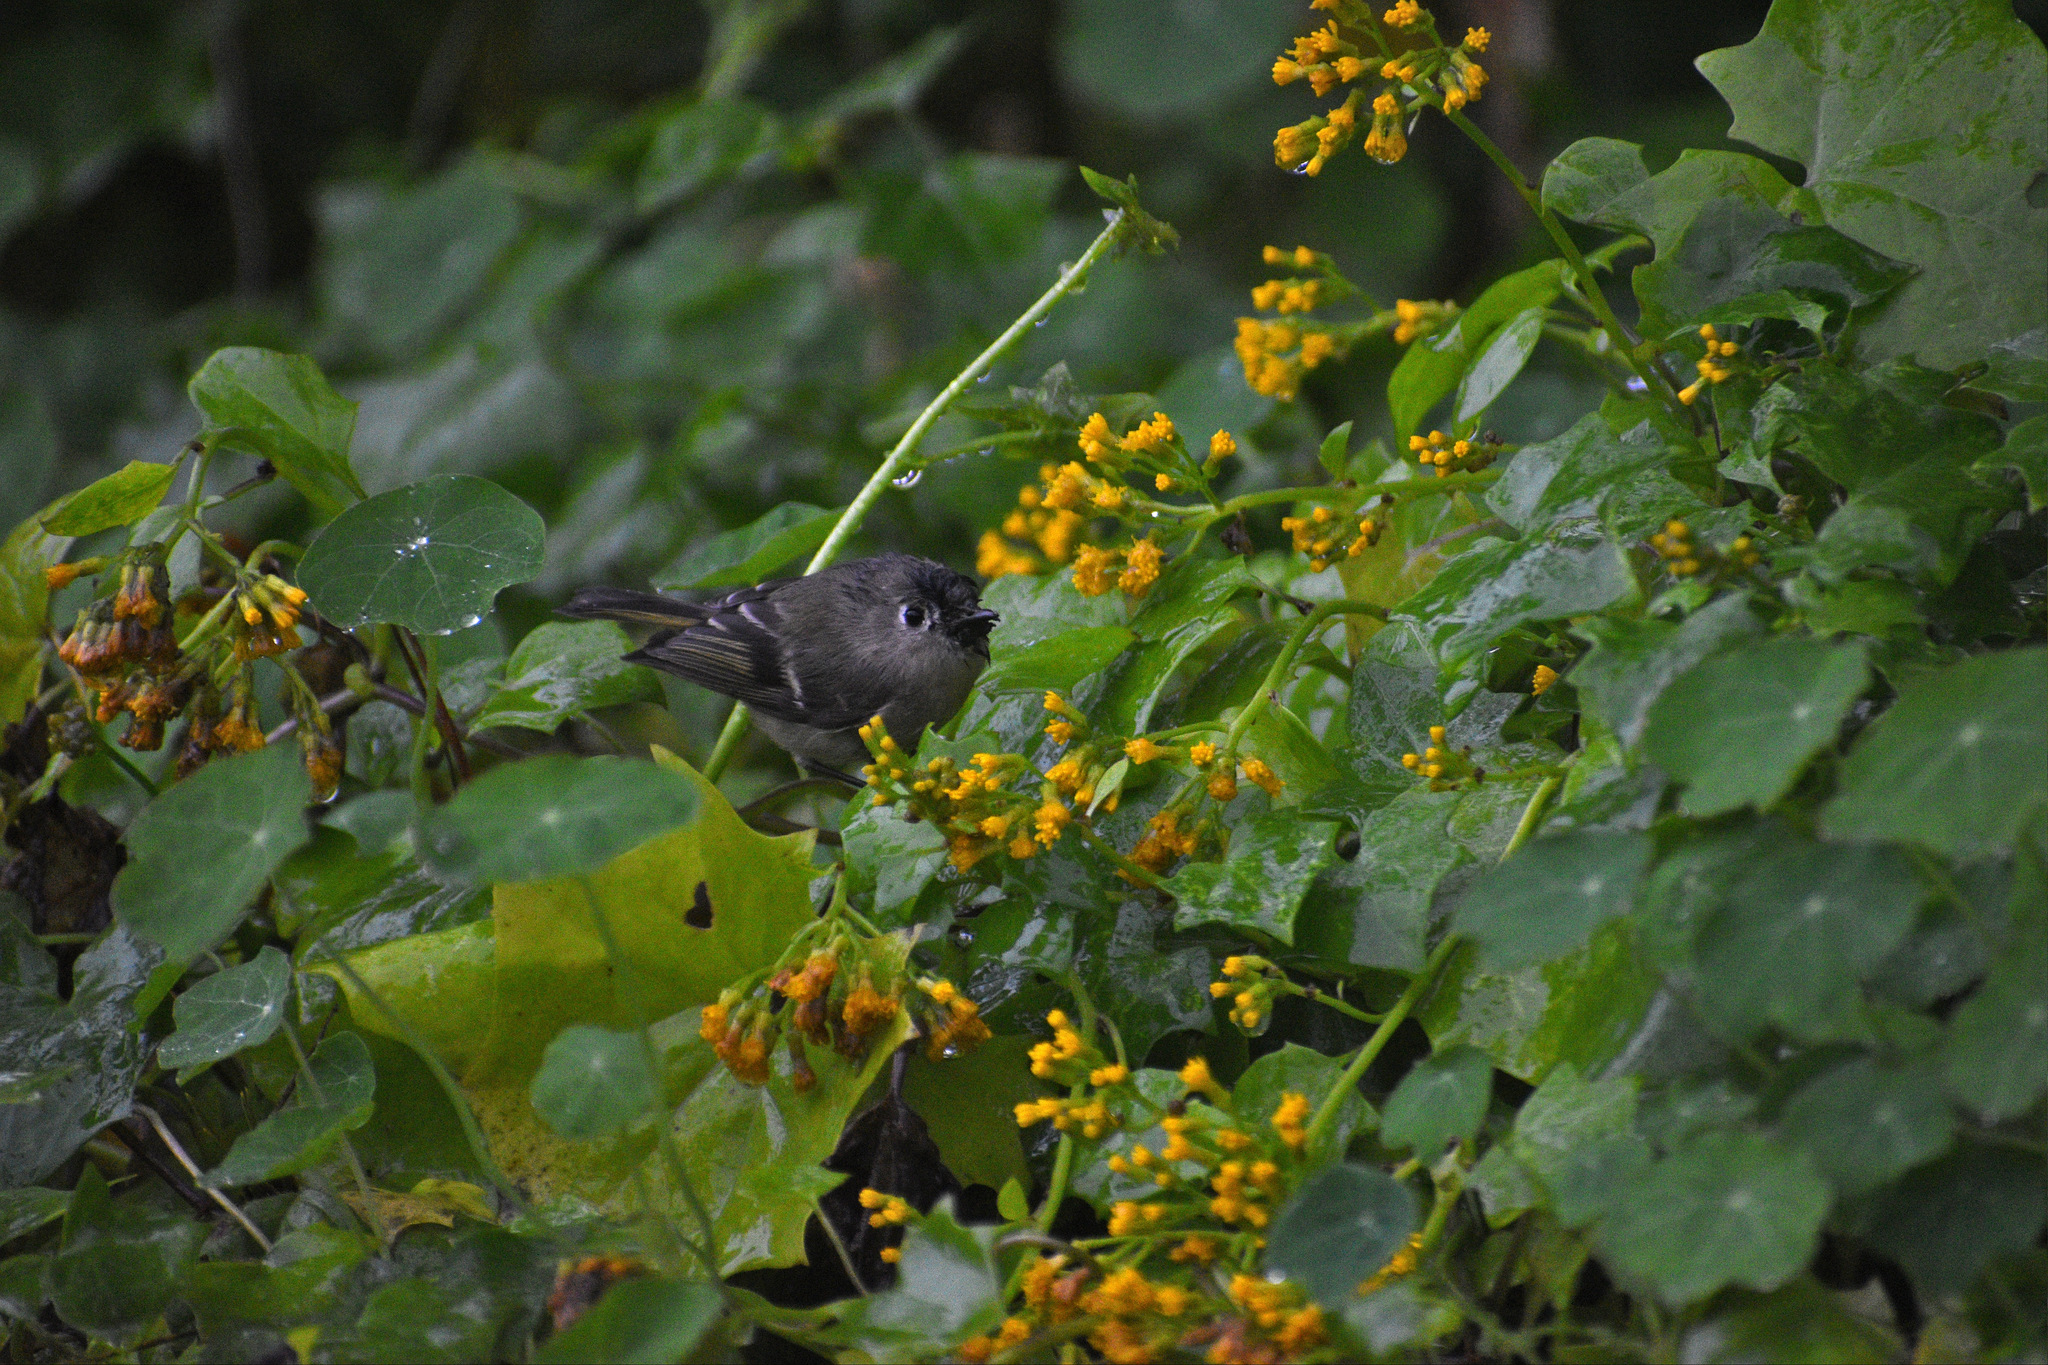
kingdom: Animalia
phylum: Chordata
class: Aves
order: Passeriformes
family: Regulidae
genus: Regulus
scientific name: Regulus calendula
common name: Ruby-crowned kinglet
